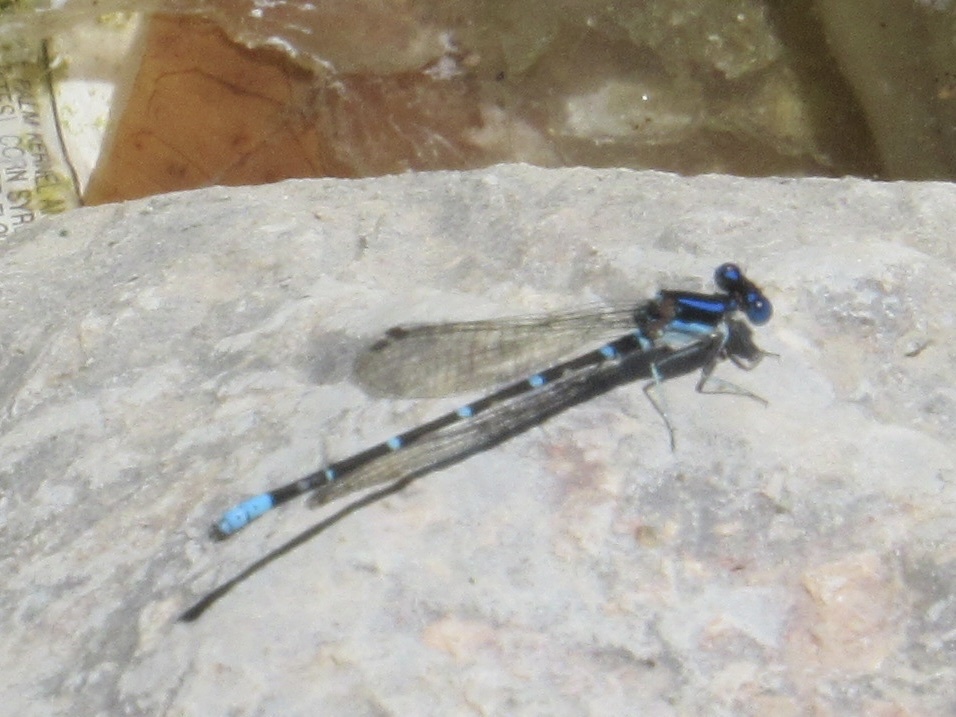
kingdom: Animalia
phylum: Arthropoda
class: Insecta
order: Odonata
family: Coenagrionidae
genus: Argia
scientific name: Argia sedula
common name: Blue-ringed dancer
